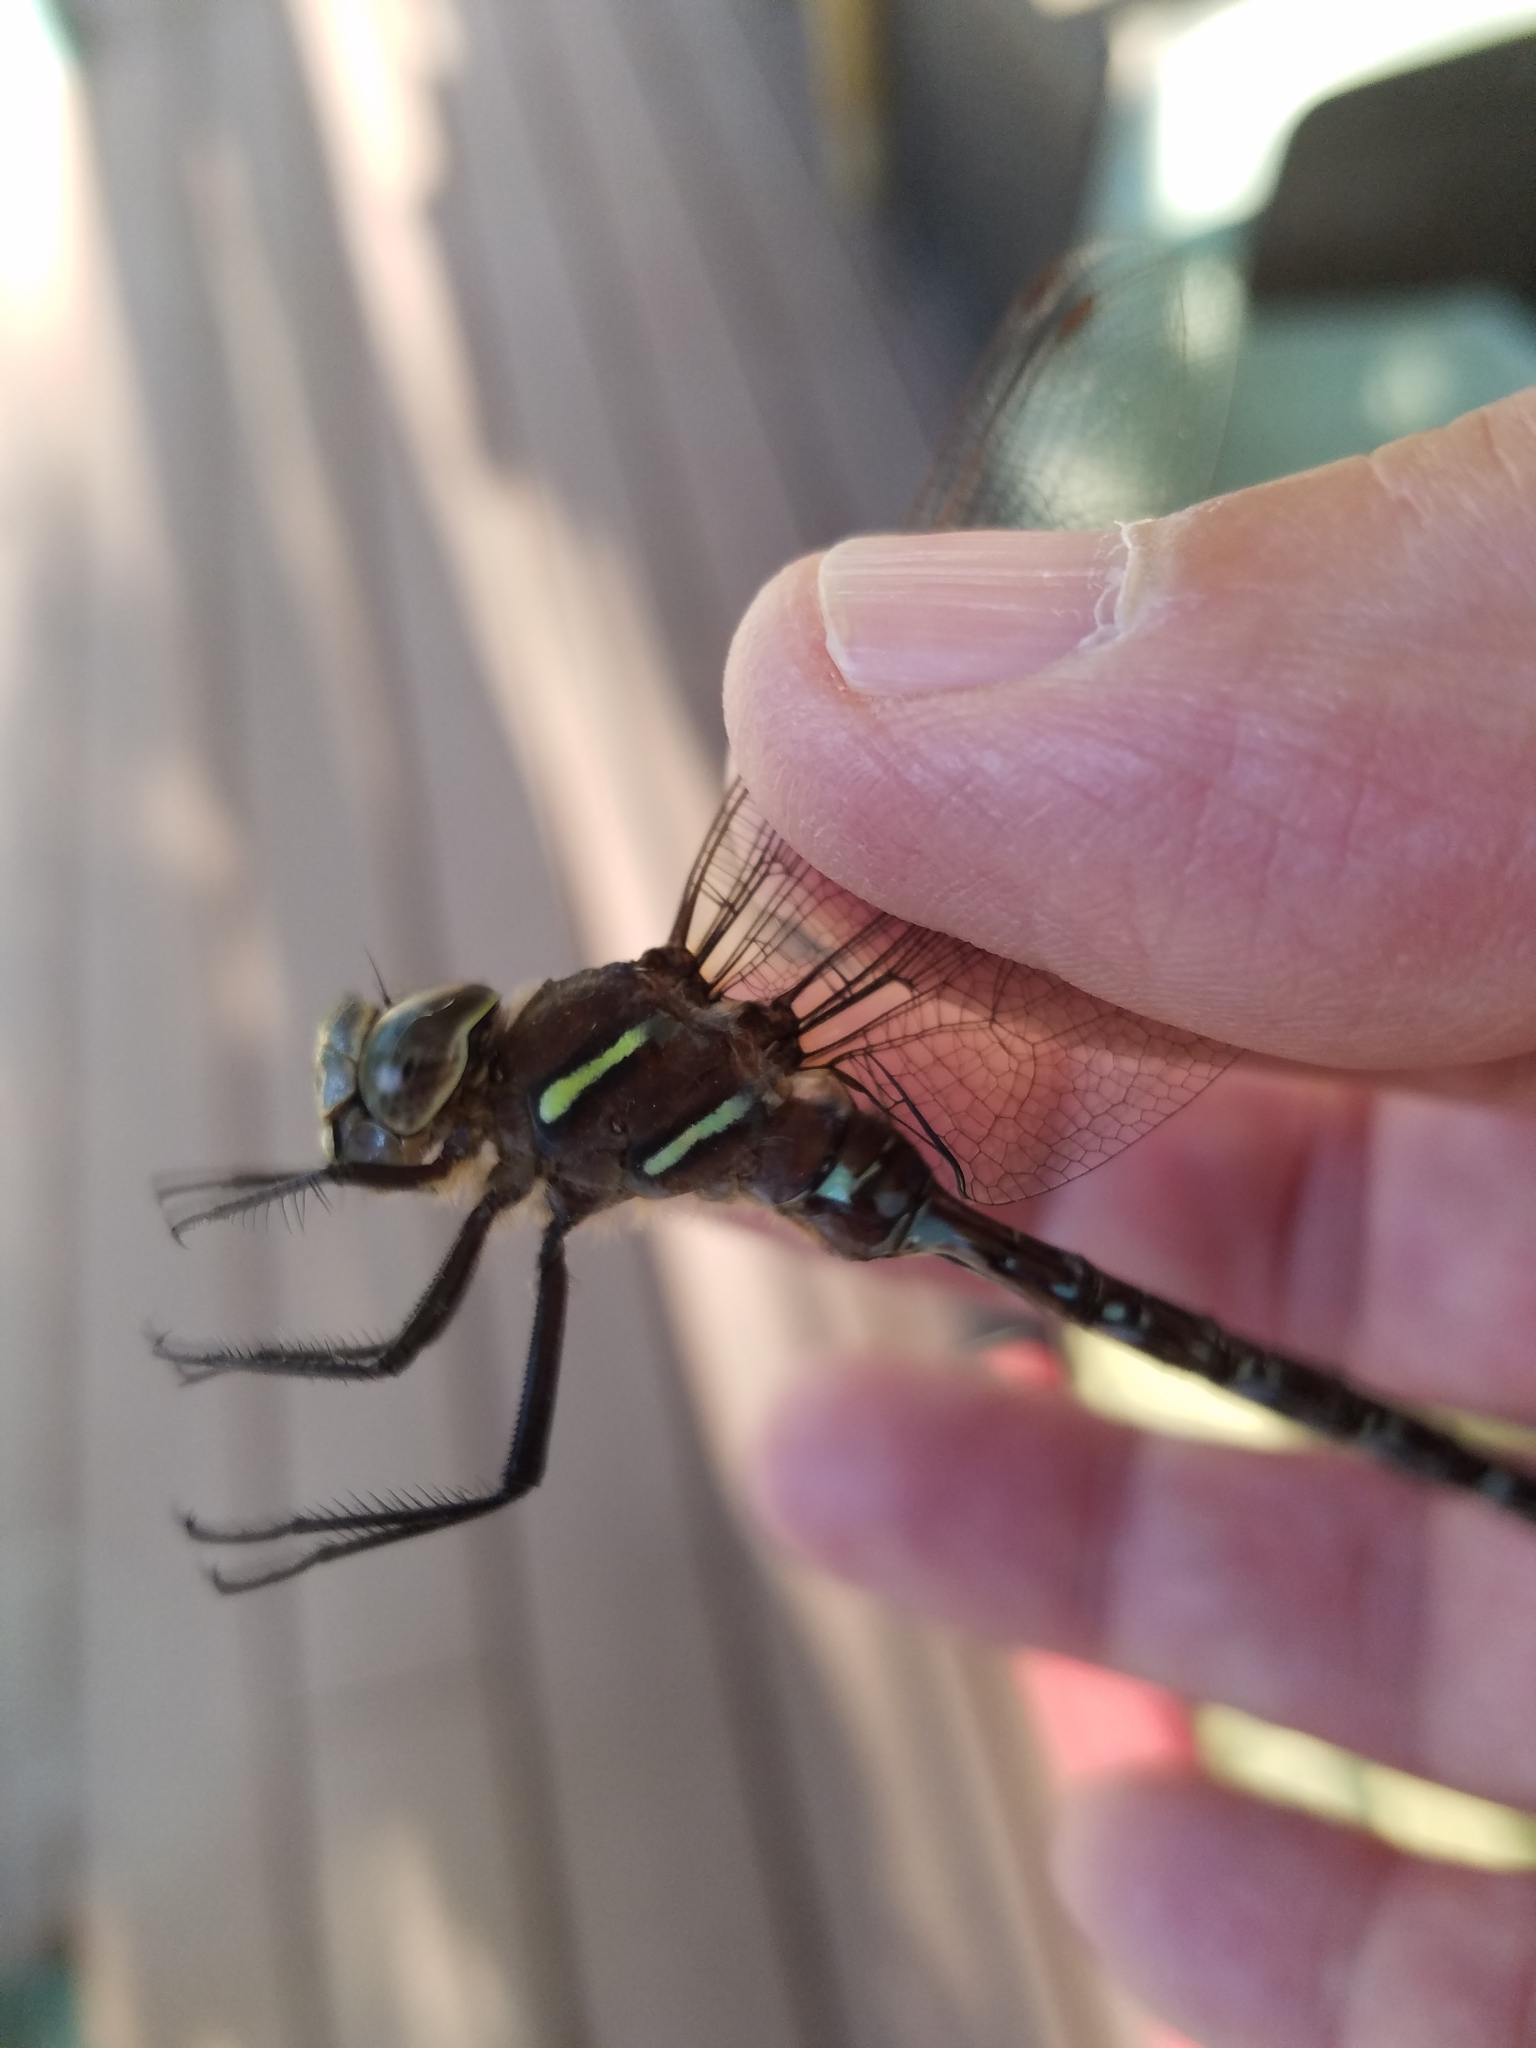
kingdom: Animalia
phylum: Arthropoda
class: Insecta
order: Odonata
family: Aeshnidae
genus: Aeshna
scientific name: Aeshna umbrosa
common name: Shadow darner
